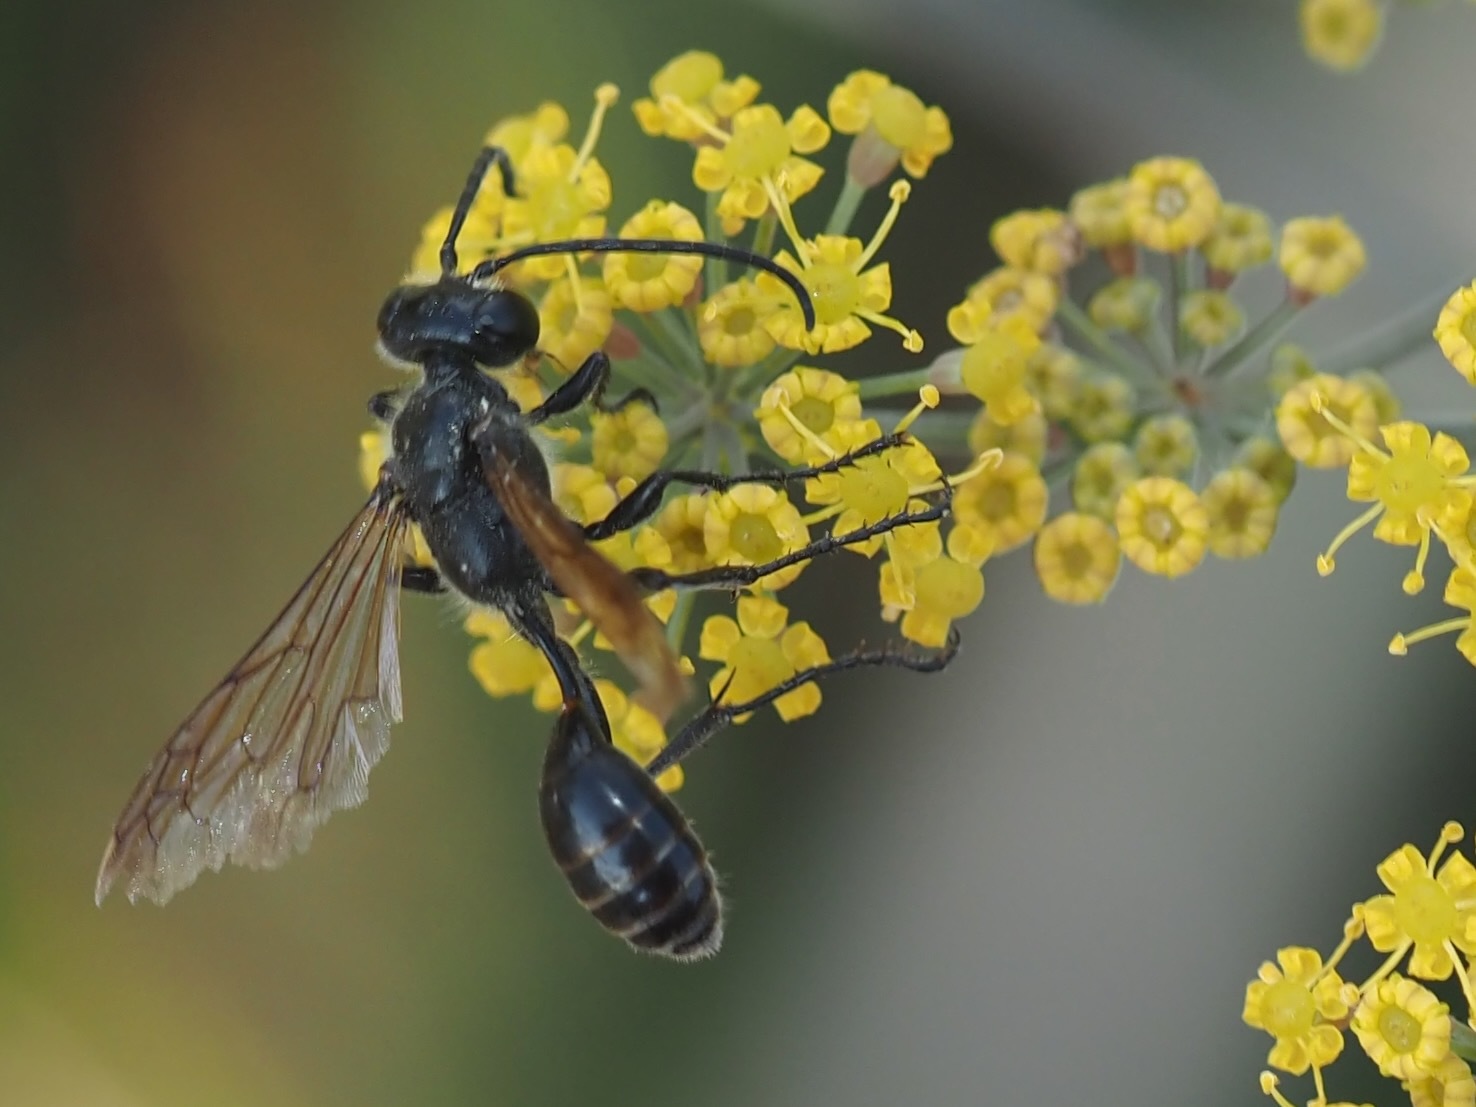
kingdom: Animalia
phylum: Arthropoda
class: Insecta
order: Hymenoptera
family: Sphecidae
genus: Isodontia
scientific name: Isodontia mexicana
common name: Mud dauber
